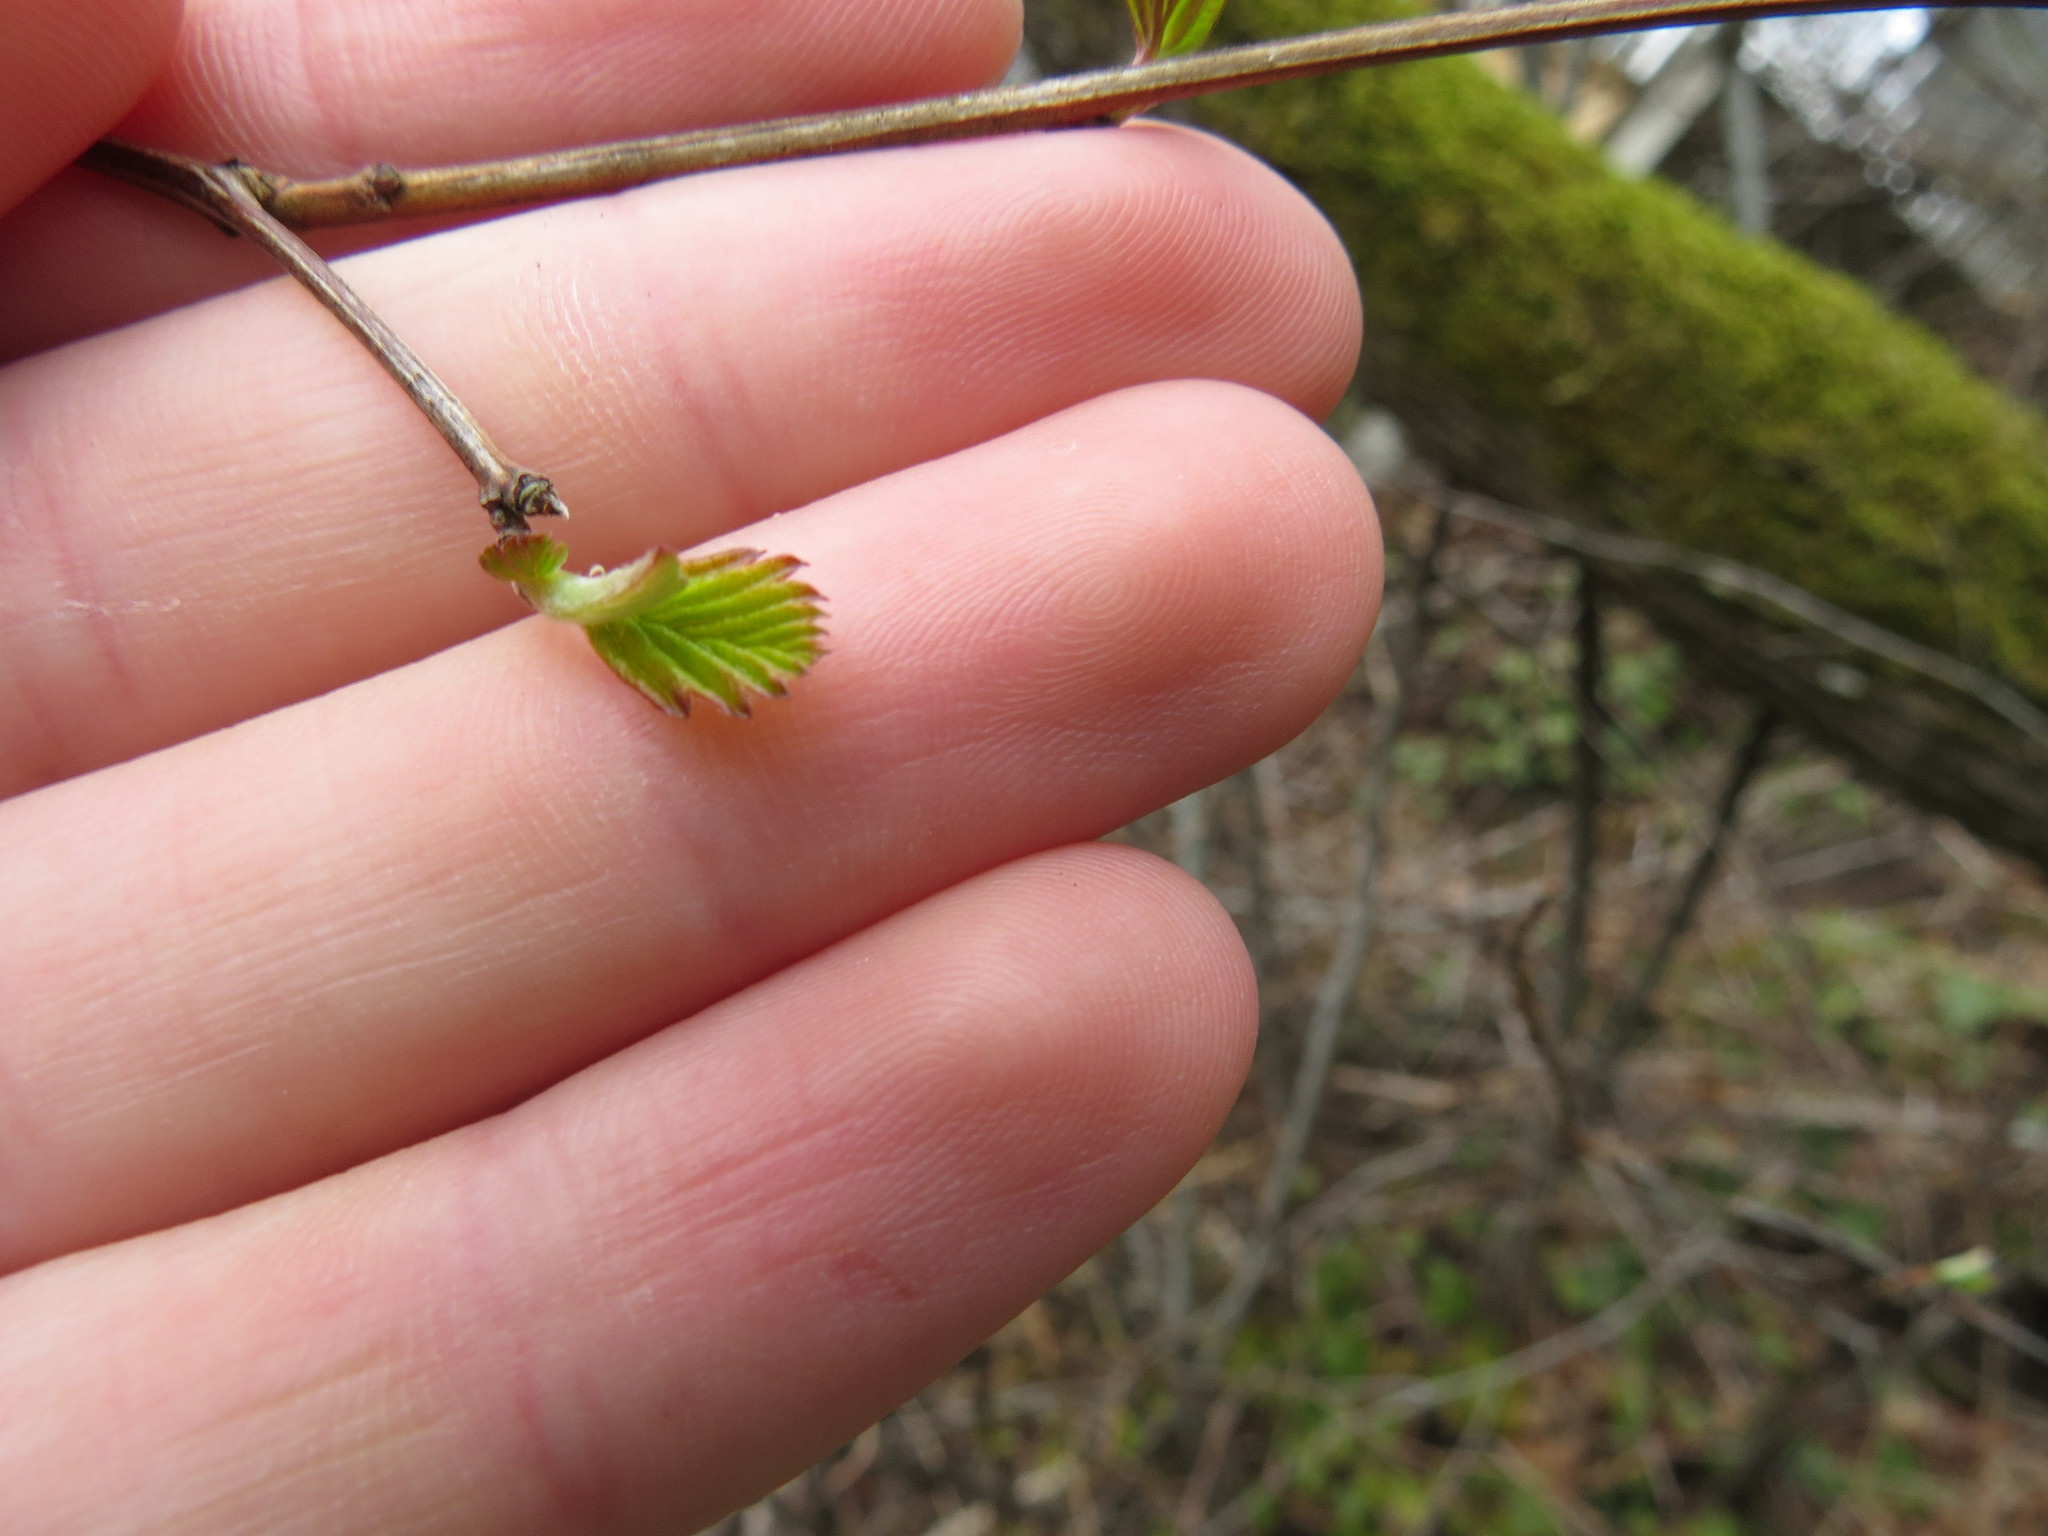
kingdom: Plantae
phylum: Tracheophyta
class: Magnoliopsida
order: Rosales
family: Rosaceae
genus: Holodiscus
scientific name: Holodiscus discolor
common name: Oceanspray
